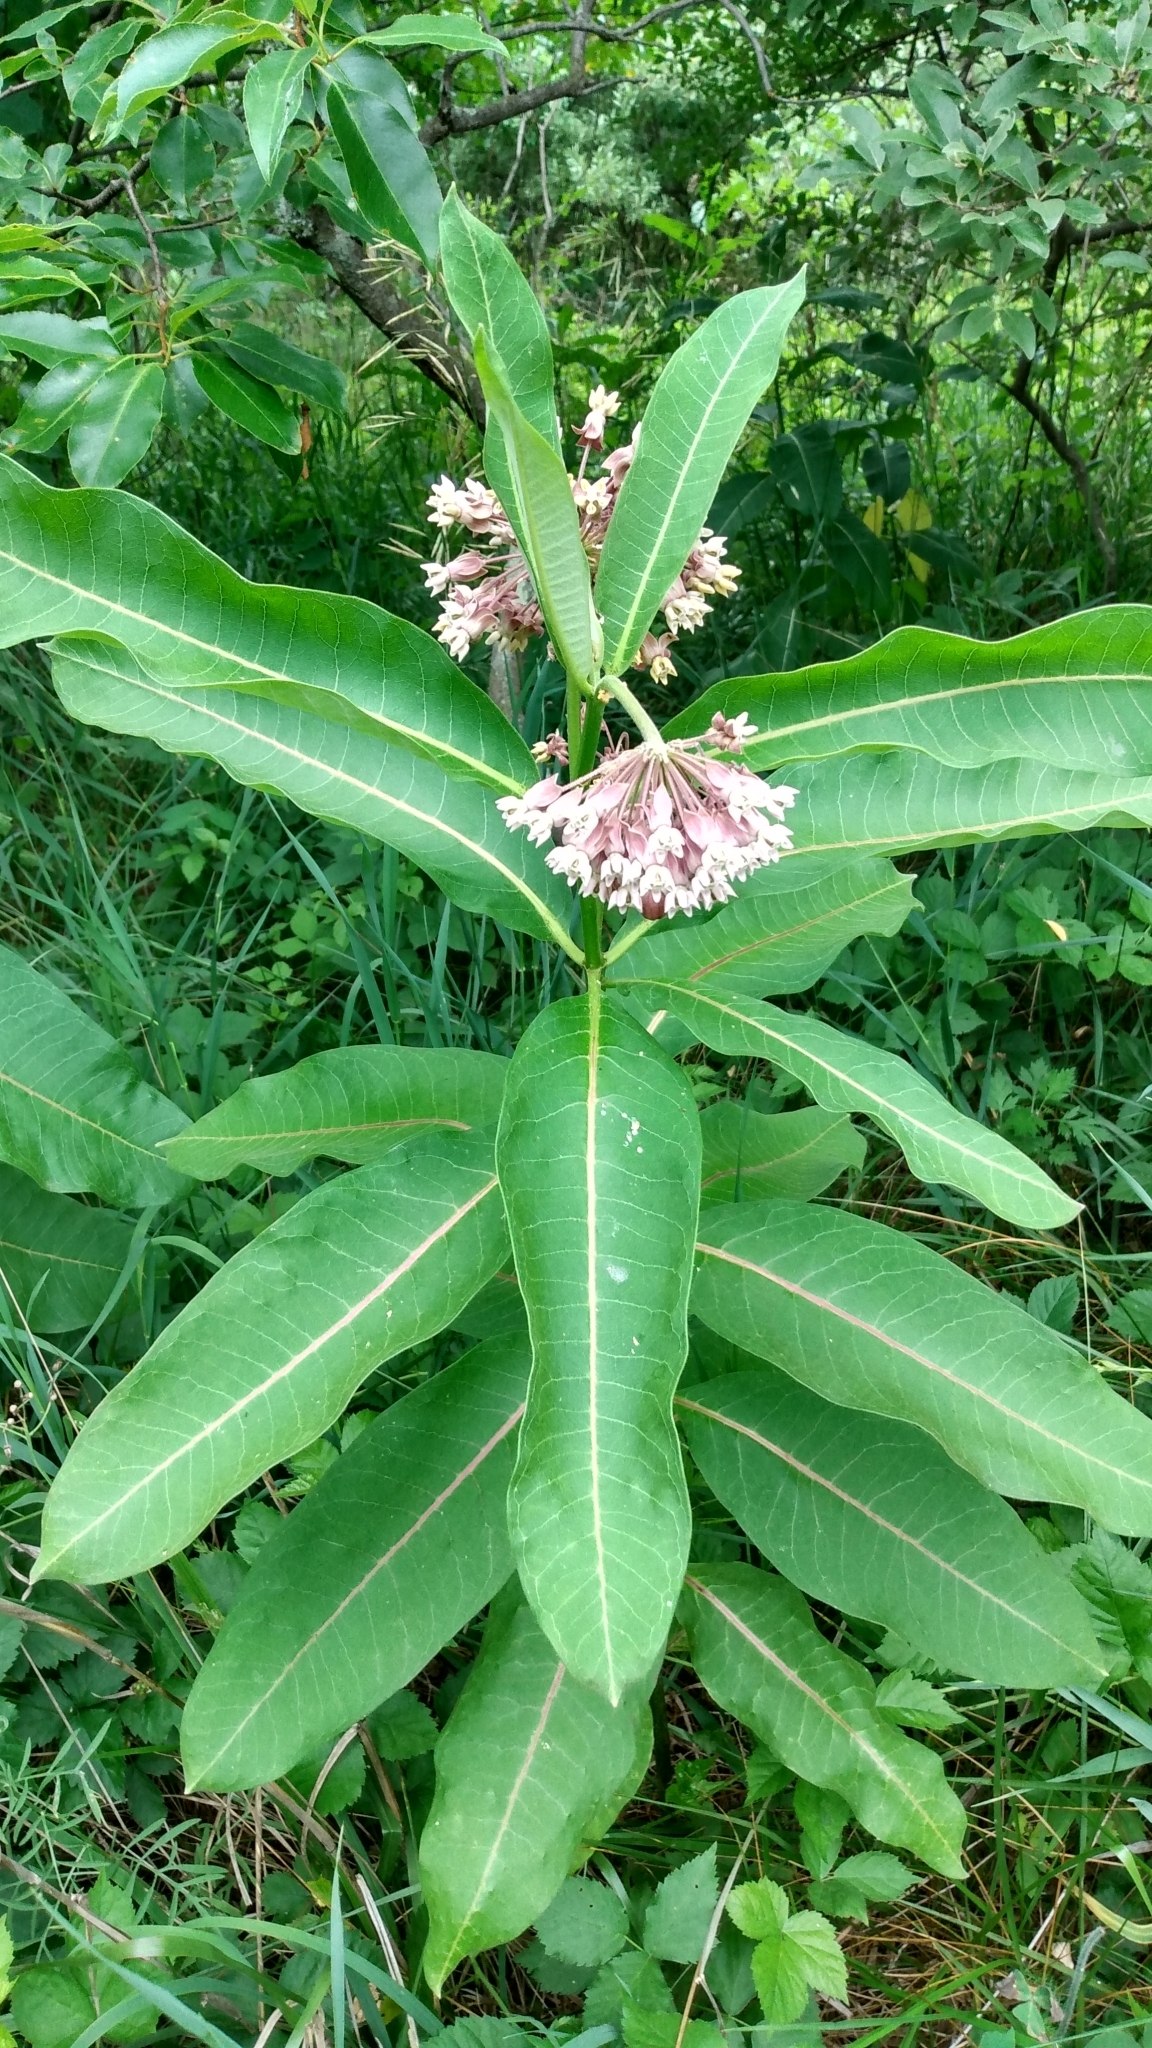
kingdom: Plantae
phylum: Tracheophyta
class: Magnoliopsida
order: Gentianales
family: Apocynaceae
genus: Asclepias
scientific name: Asclepias syriaca
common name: Common milkweed
